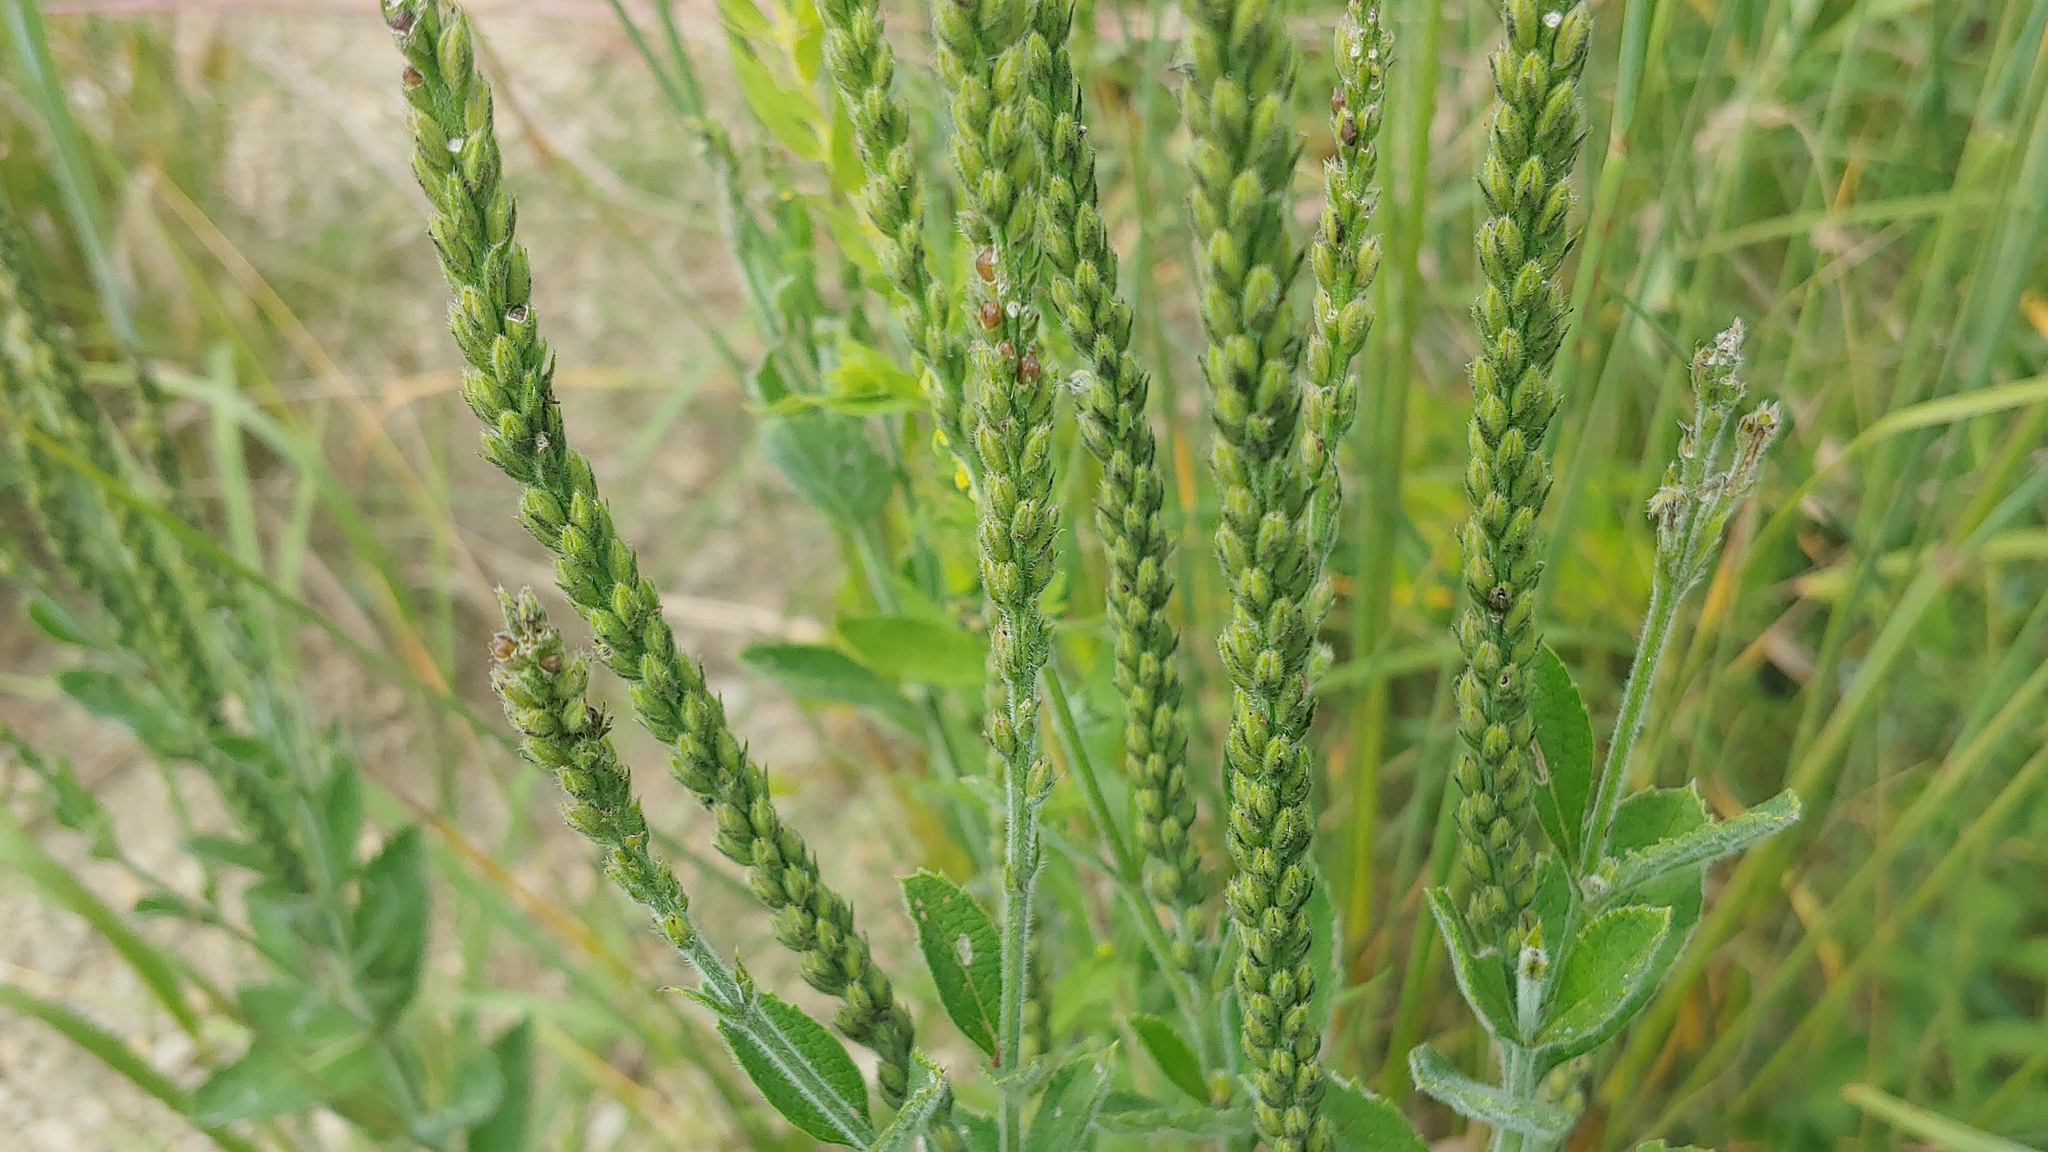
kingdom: Plantae
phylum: Tracheophyta
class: Magnoliopsida
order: Lamiales
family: Verbenaceae
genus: Verbena
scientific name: Verbena stricta
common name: Hoary vervain
